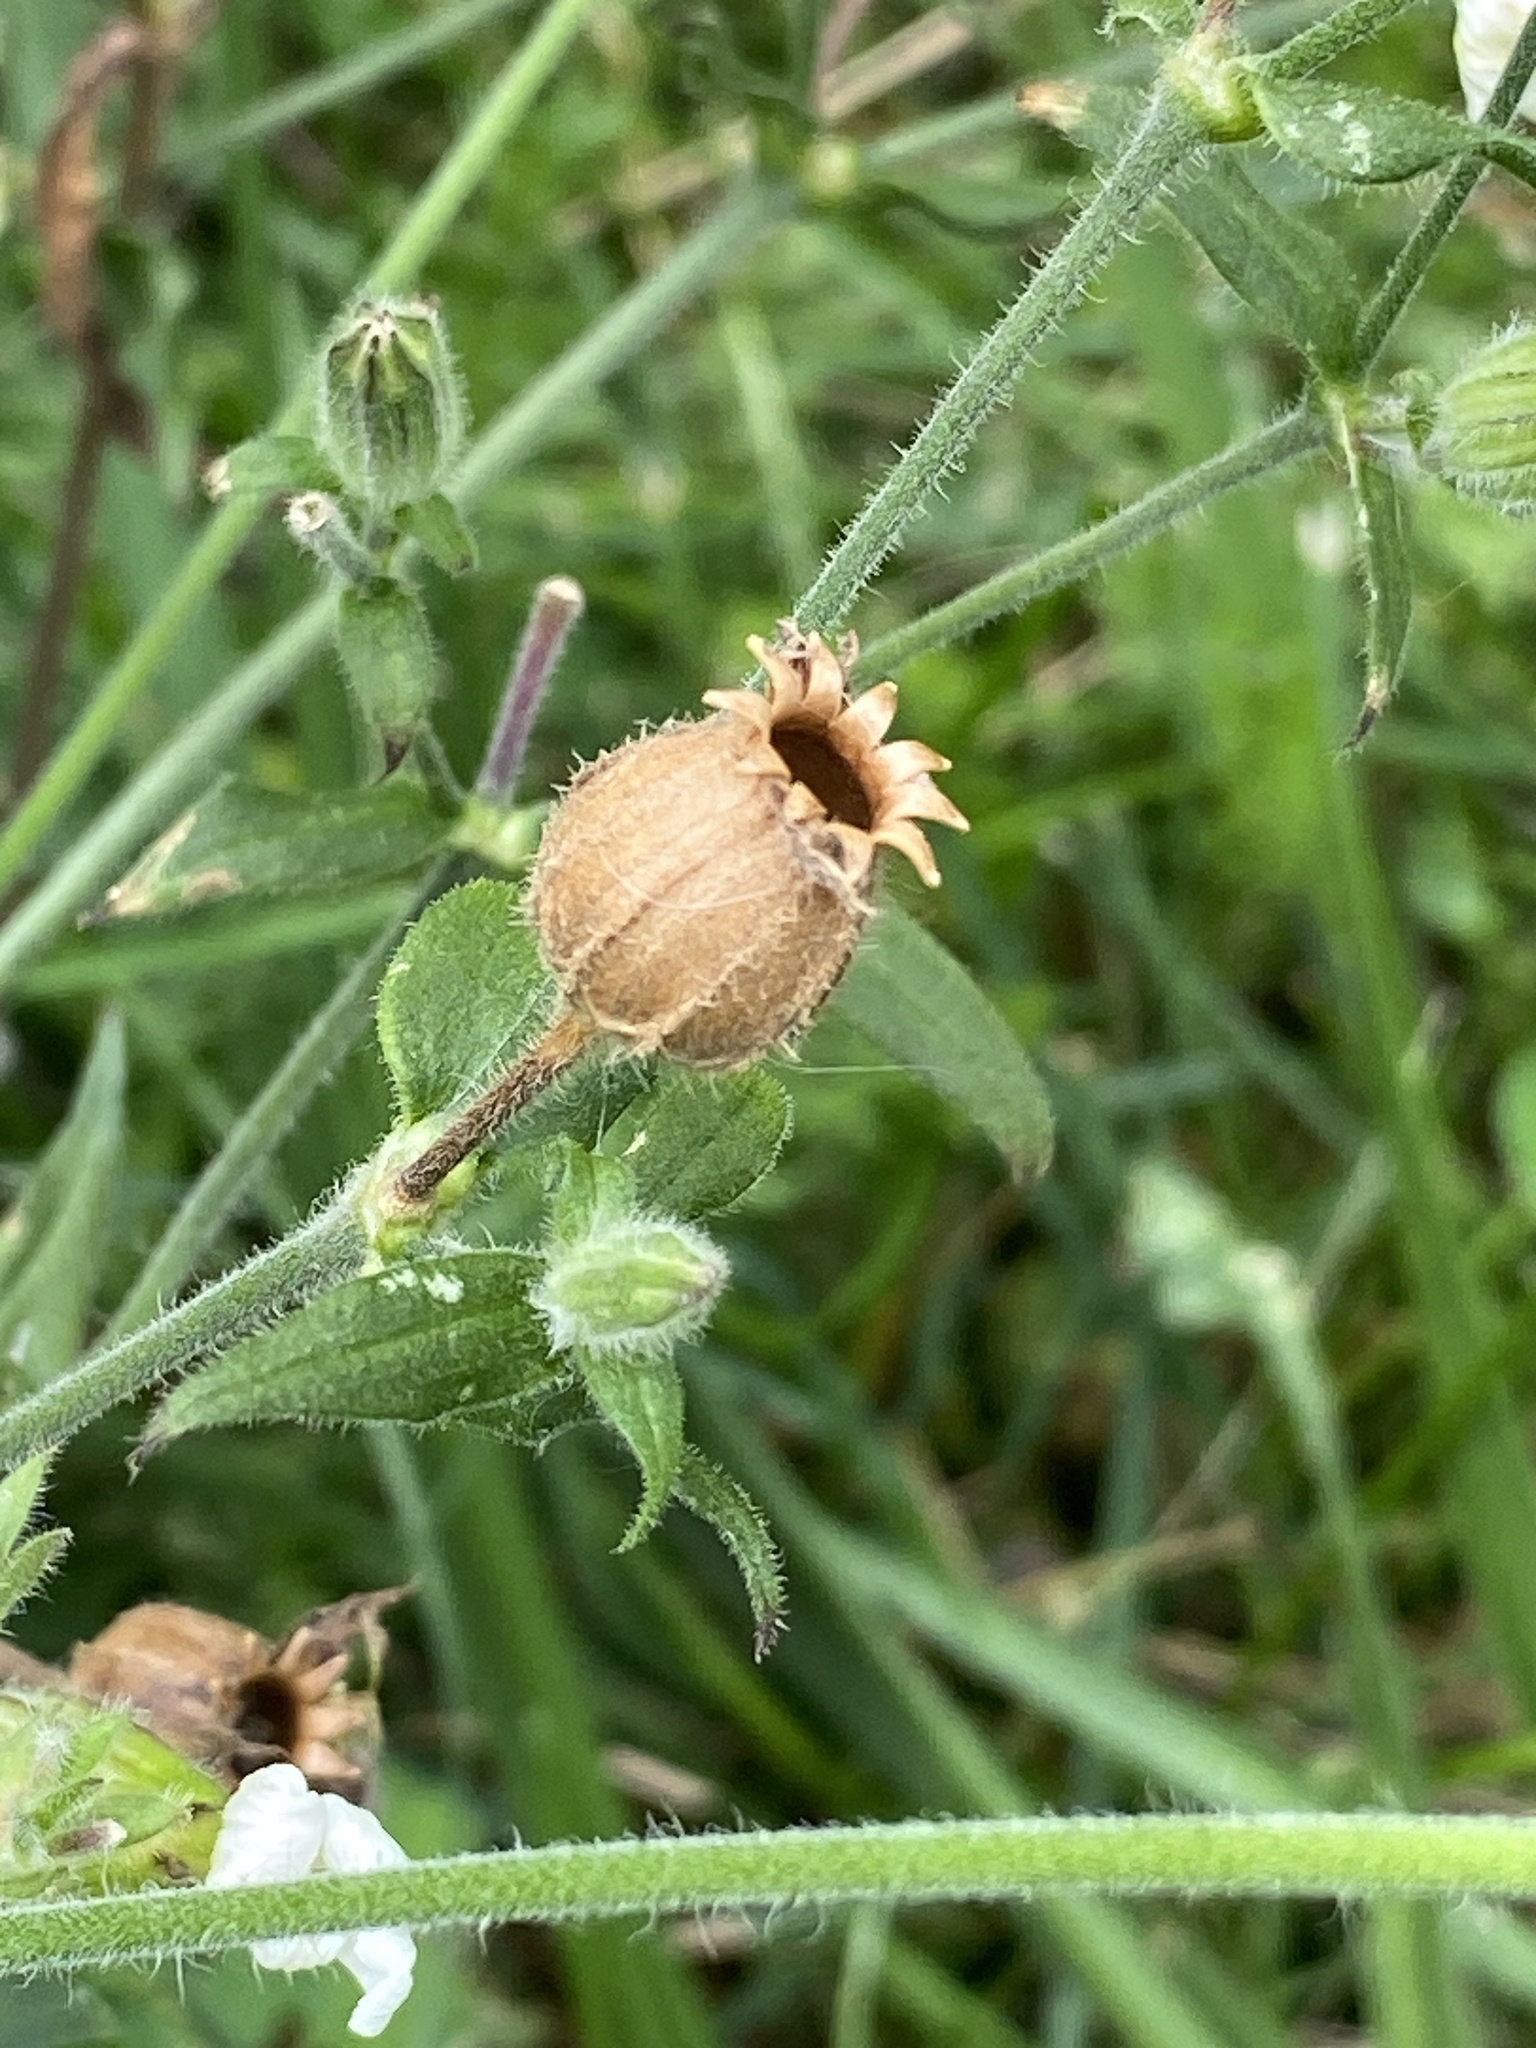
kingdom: Plantae
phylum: Tracheophyta
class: Magnoliopsida
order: Caryophyllales
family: Caryophyllaceae
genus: Silene
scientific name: Silene latifolia
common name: White campion
